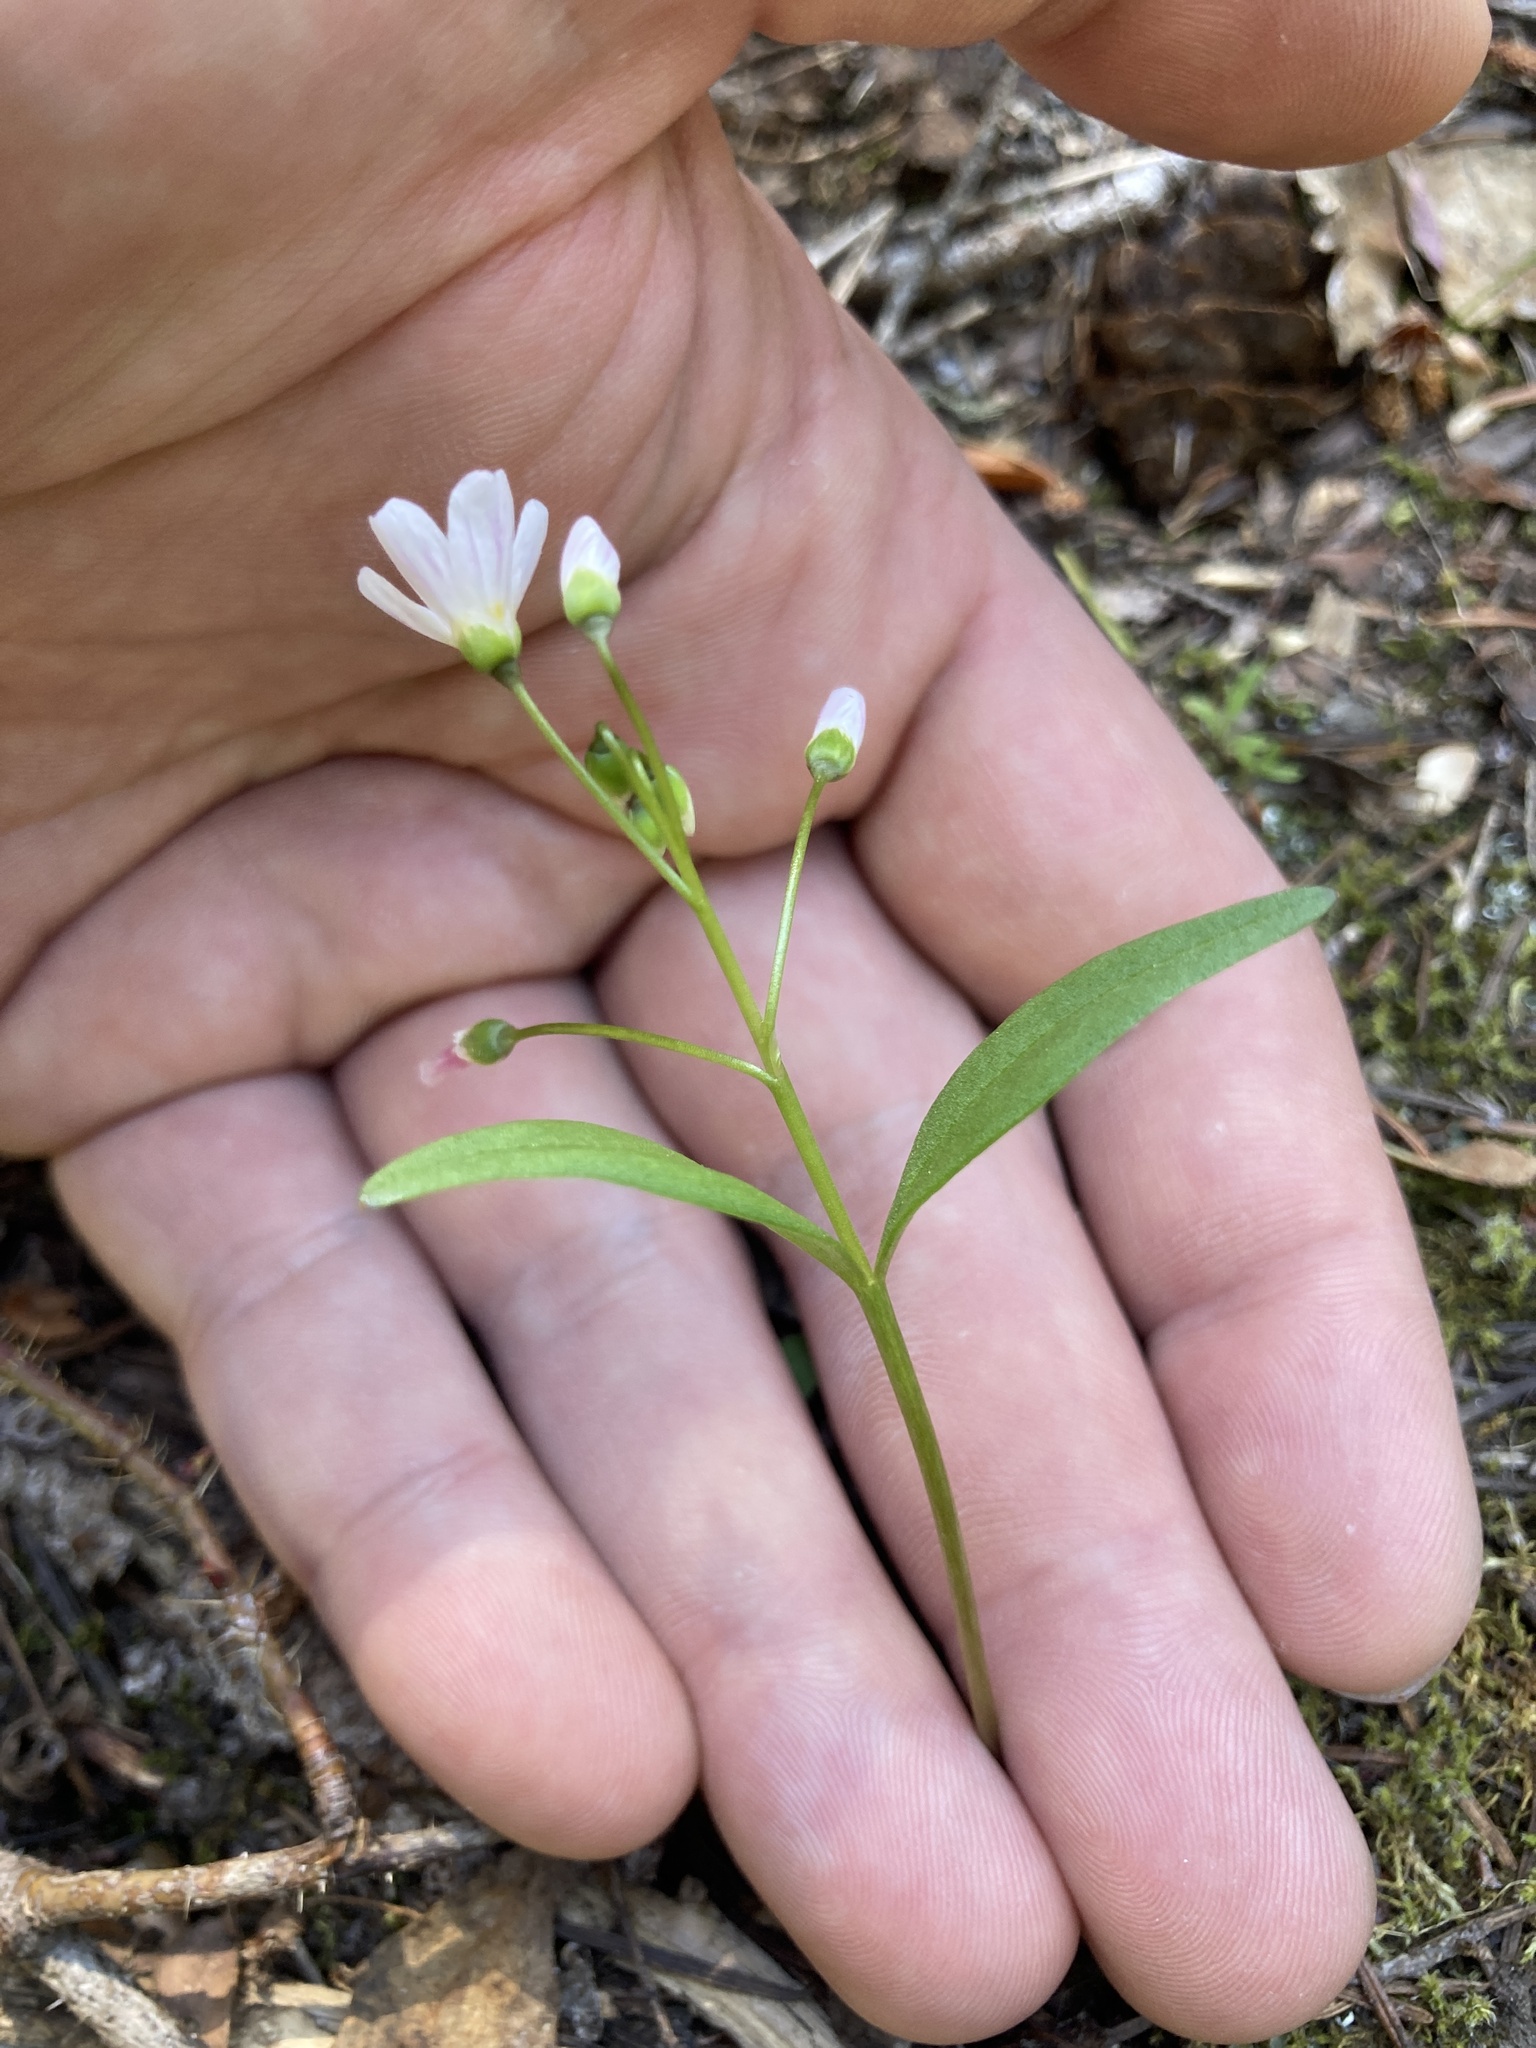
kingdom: Plantae
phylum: Tracheophyta
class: Magnoliopsida
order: Caryophyllales
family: Montiaceae
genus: Claytonia
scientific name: Claytonia lanceolata
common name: Western spring-beauty
